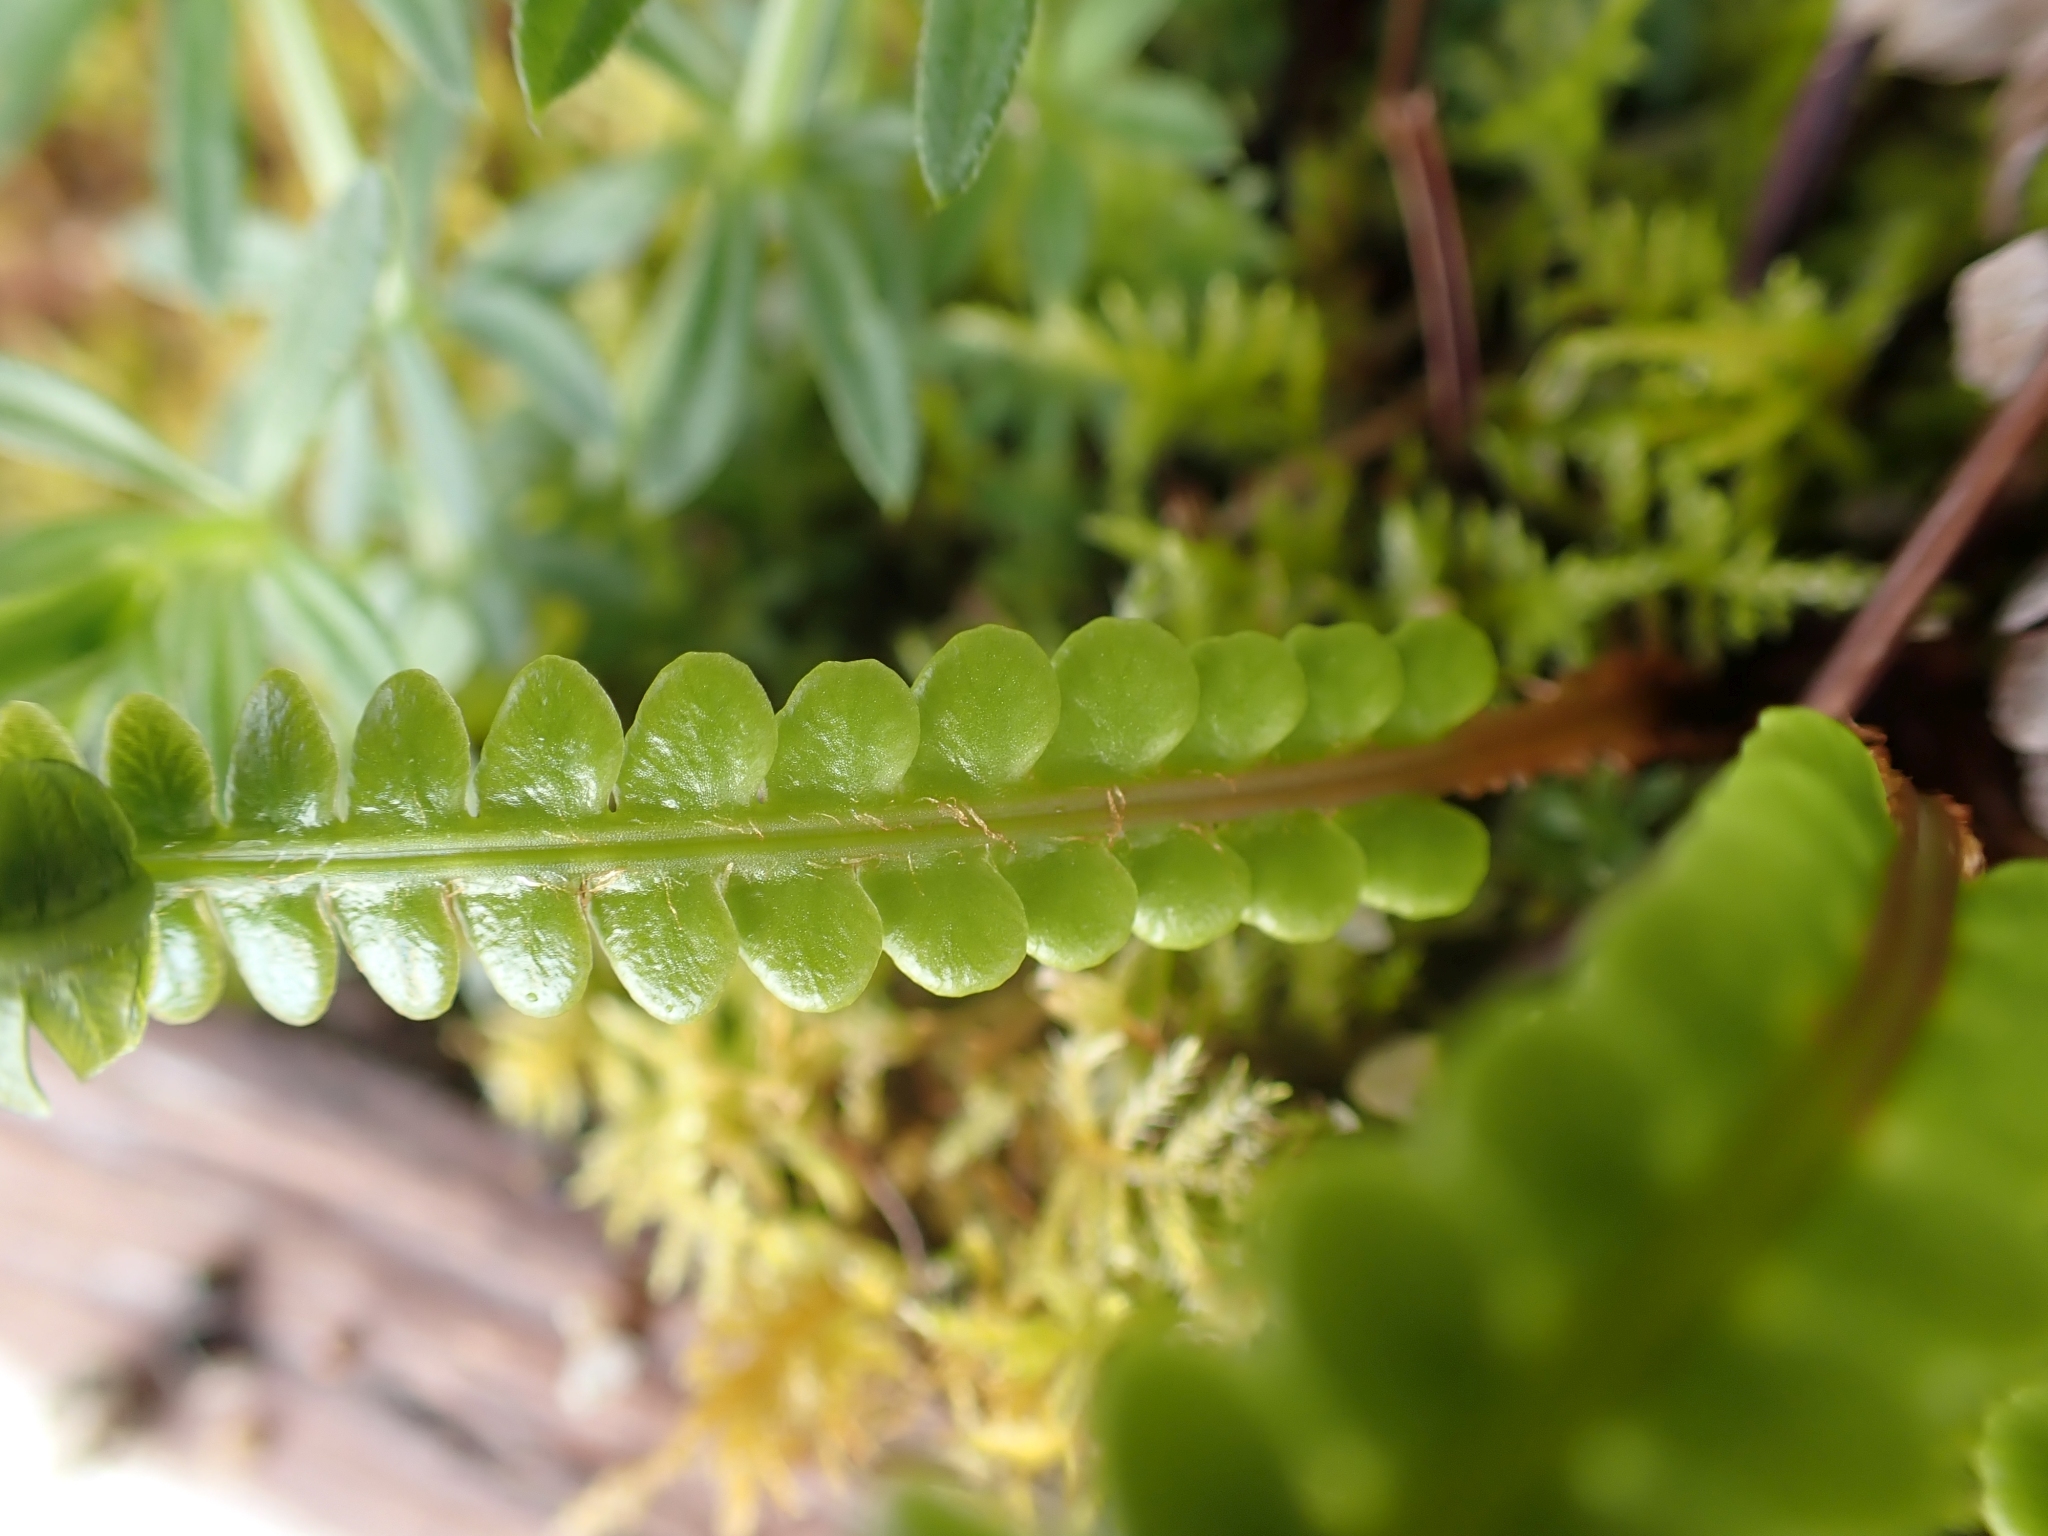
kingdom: Plantae
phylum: Tracheophyta
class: Polypodiopsida
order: Polypodiales
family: Blechnaceae
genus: Struthiopteris
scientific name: Struthiopteris spicant
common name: Deer fern
